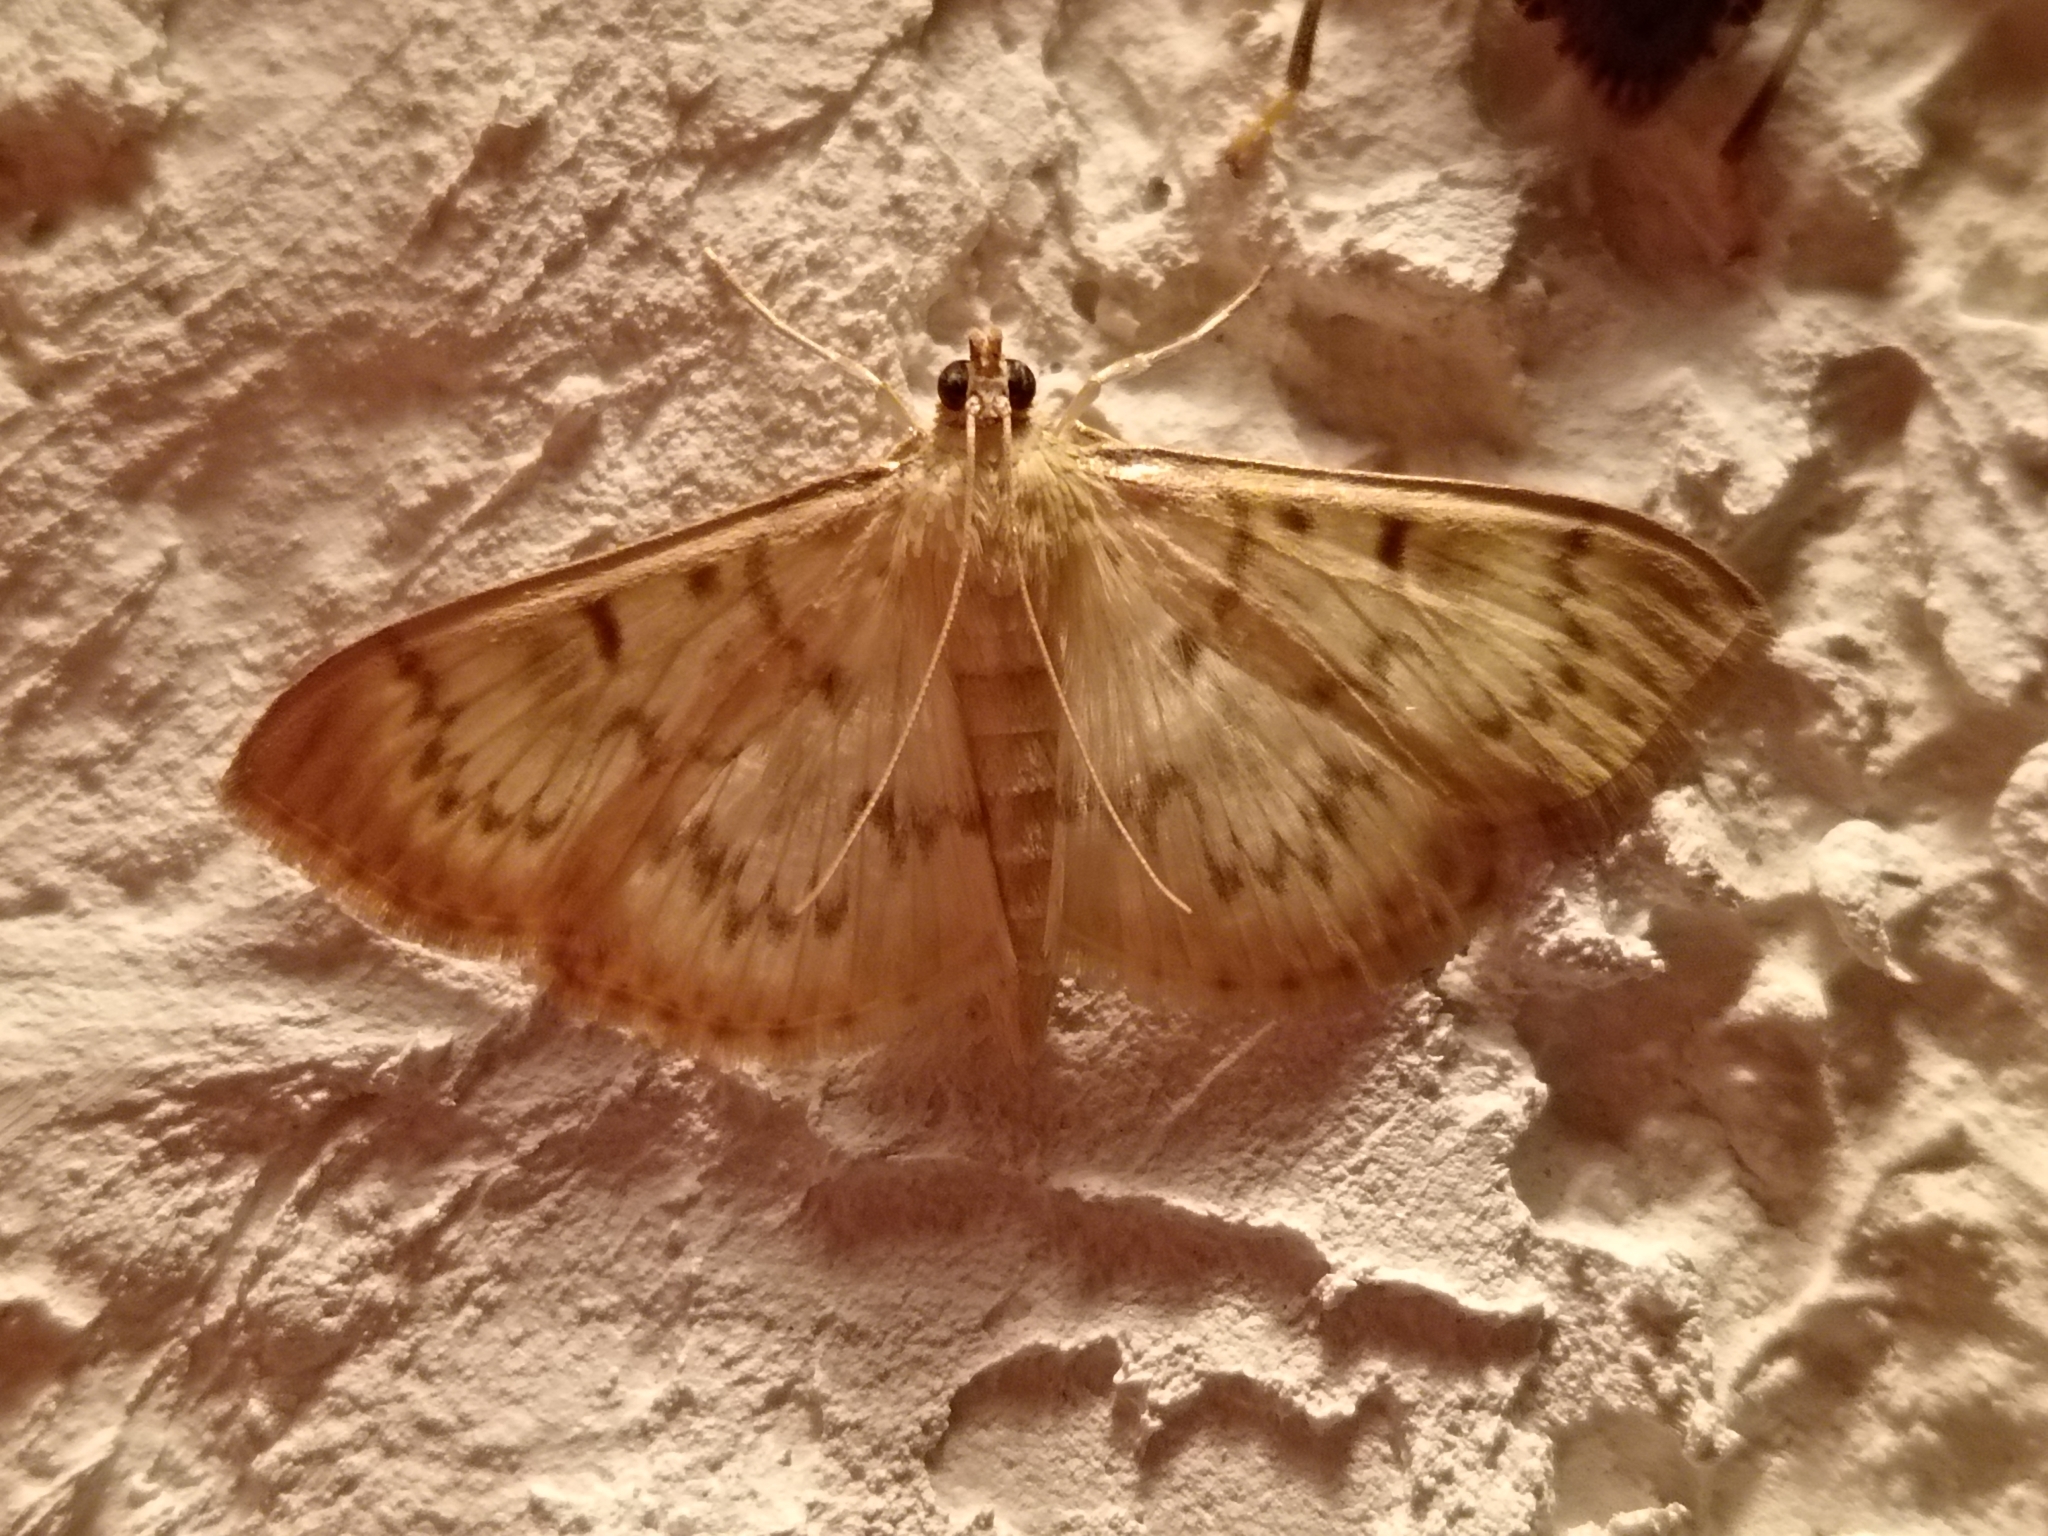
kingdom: Animalia
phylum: Arthropoda
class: Insecta
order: Lepidoptera
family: Crambidae
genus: Patania
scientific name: Patania ruralis
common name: Mother of pearl
